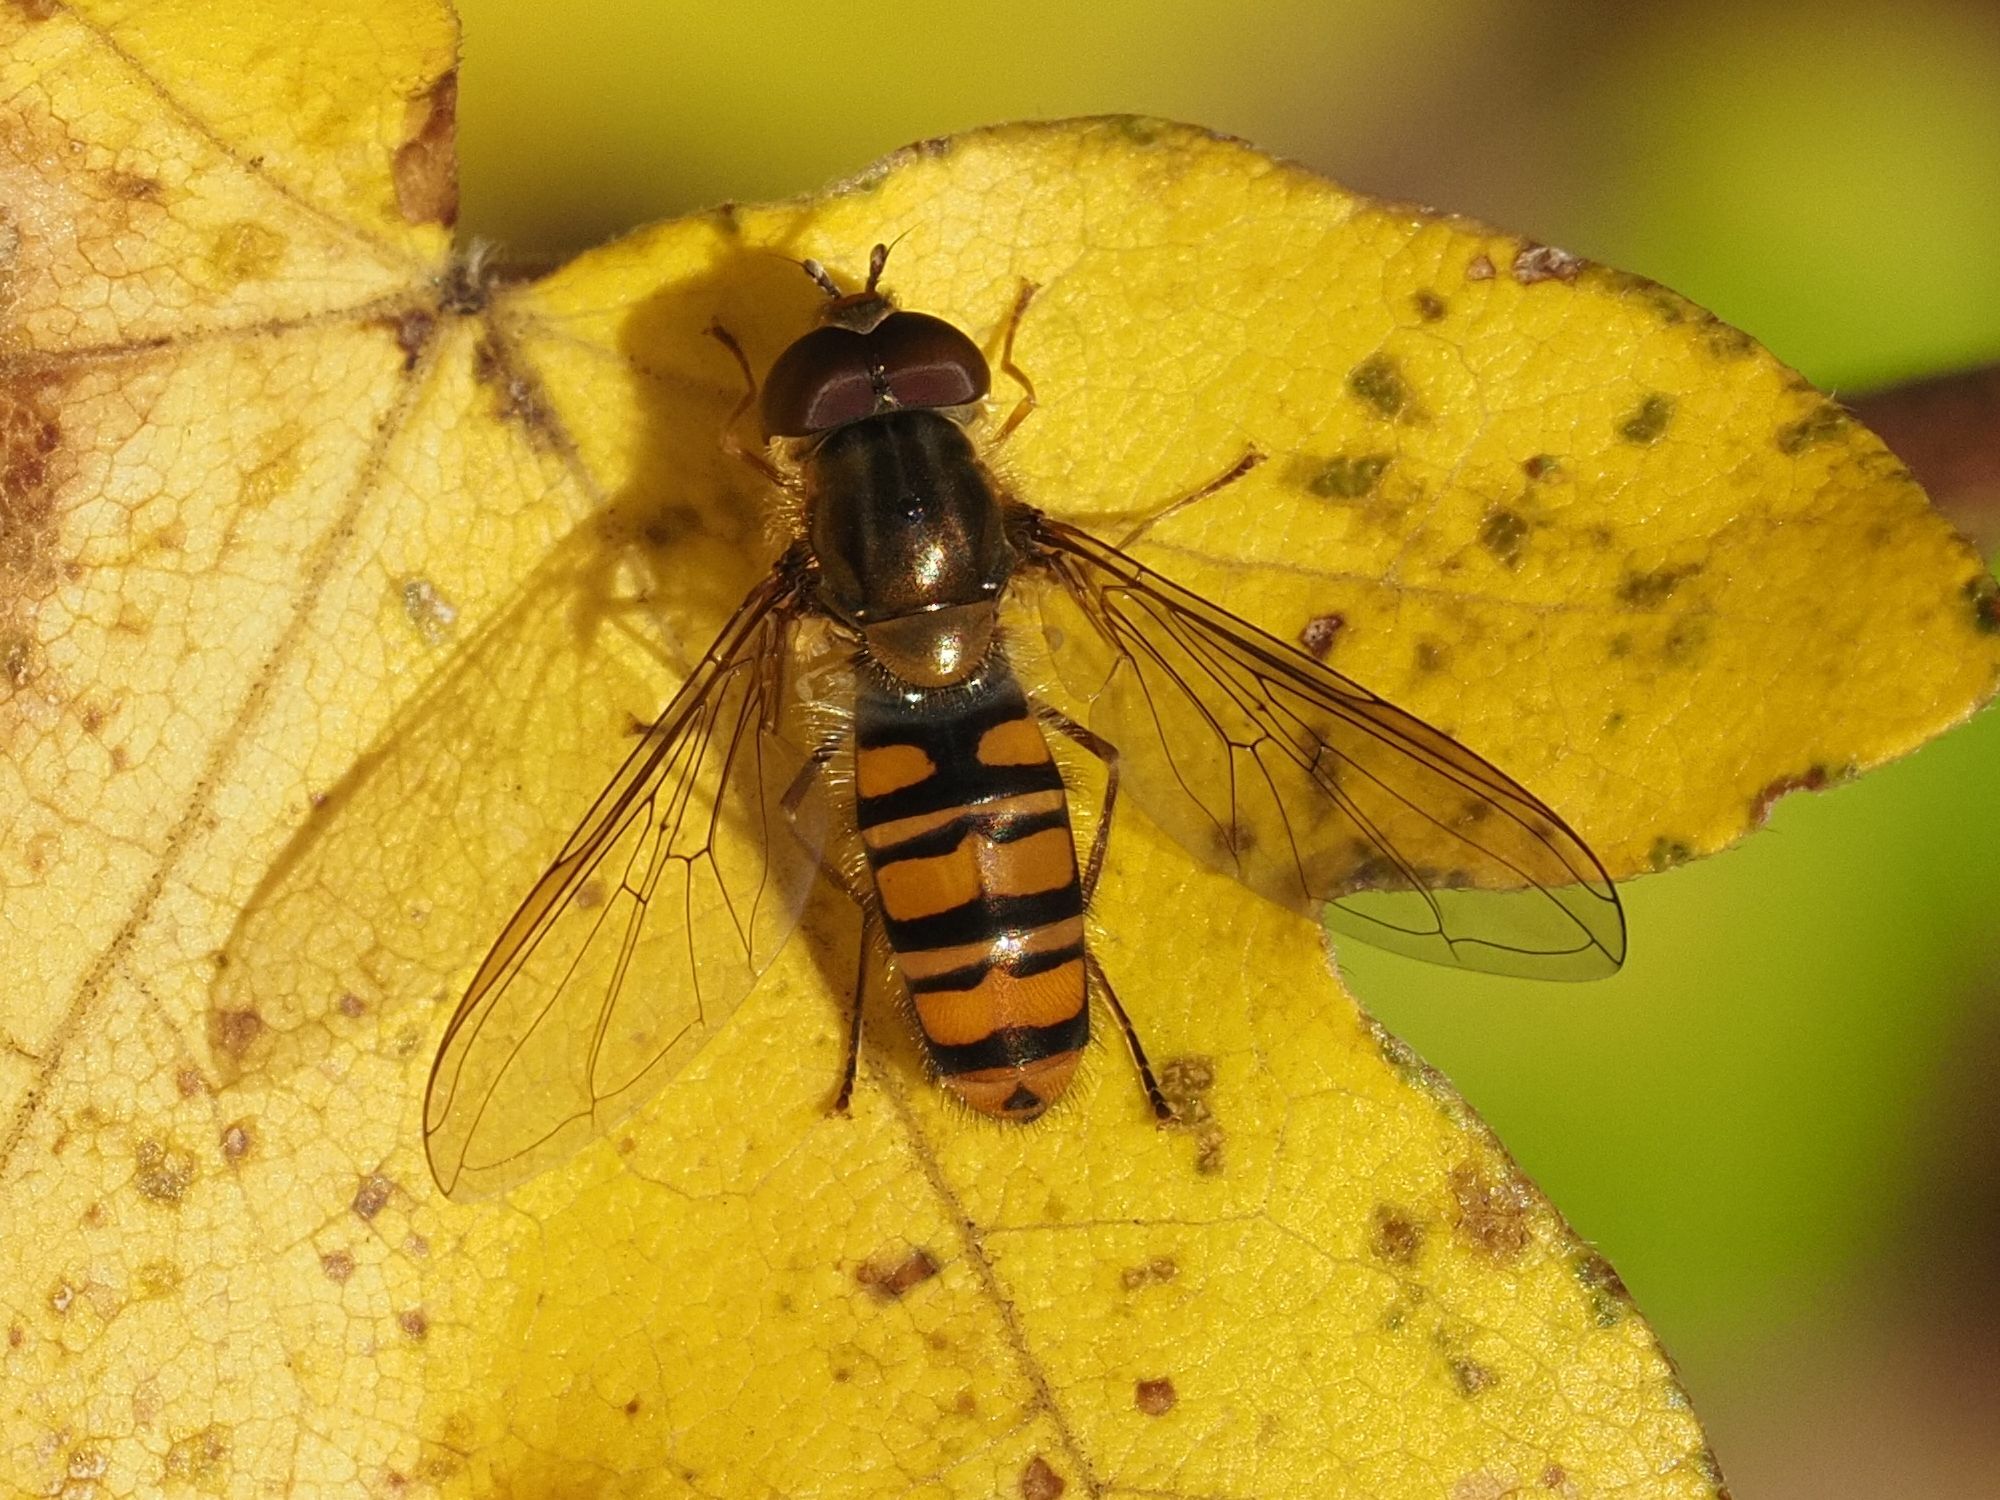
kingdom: Animalia
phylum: Arthropoda
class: Insecta
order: Diptera
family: Syrphidae
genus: Episyrphus
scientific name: Episyrphus balteatus
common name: Marmalade hoverfly
